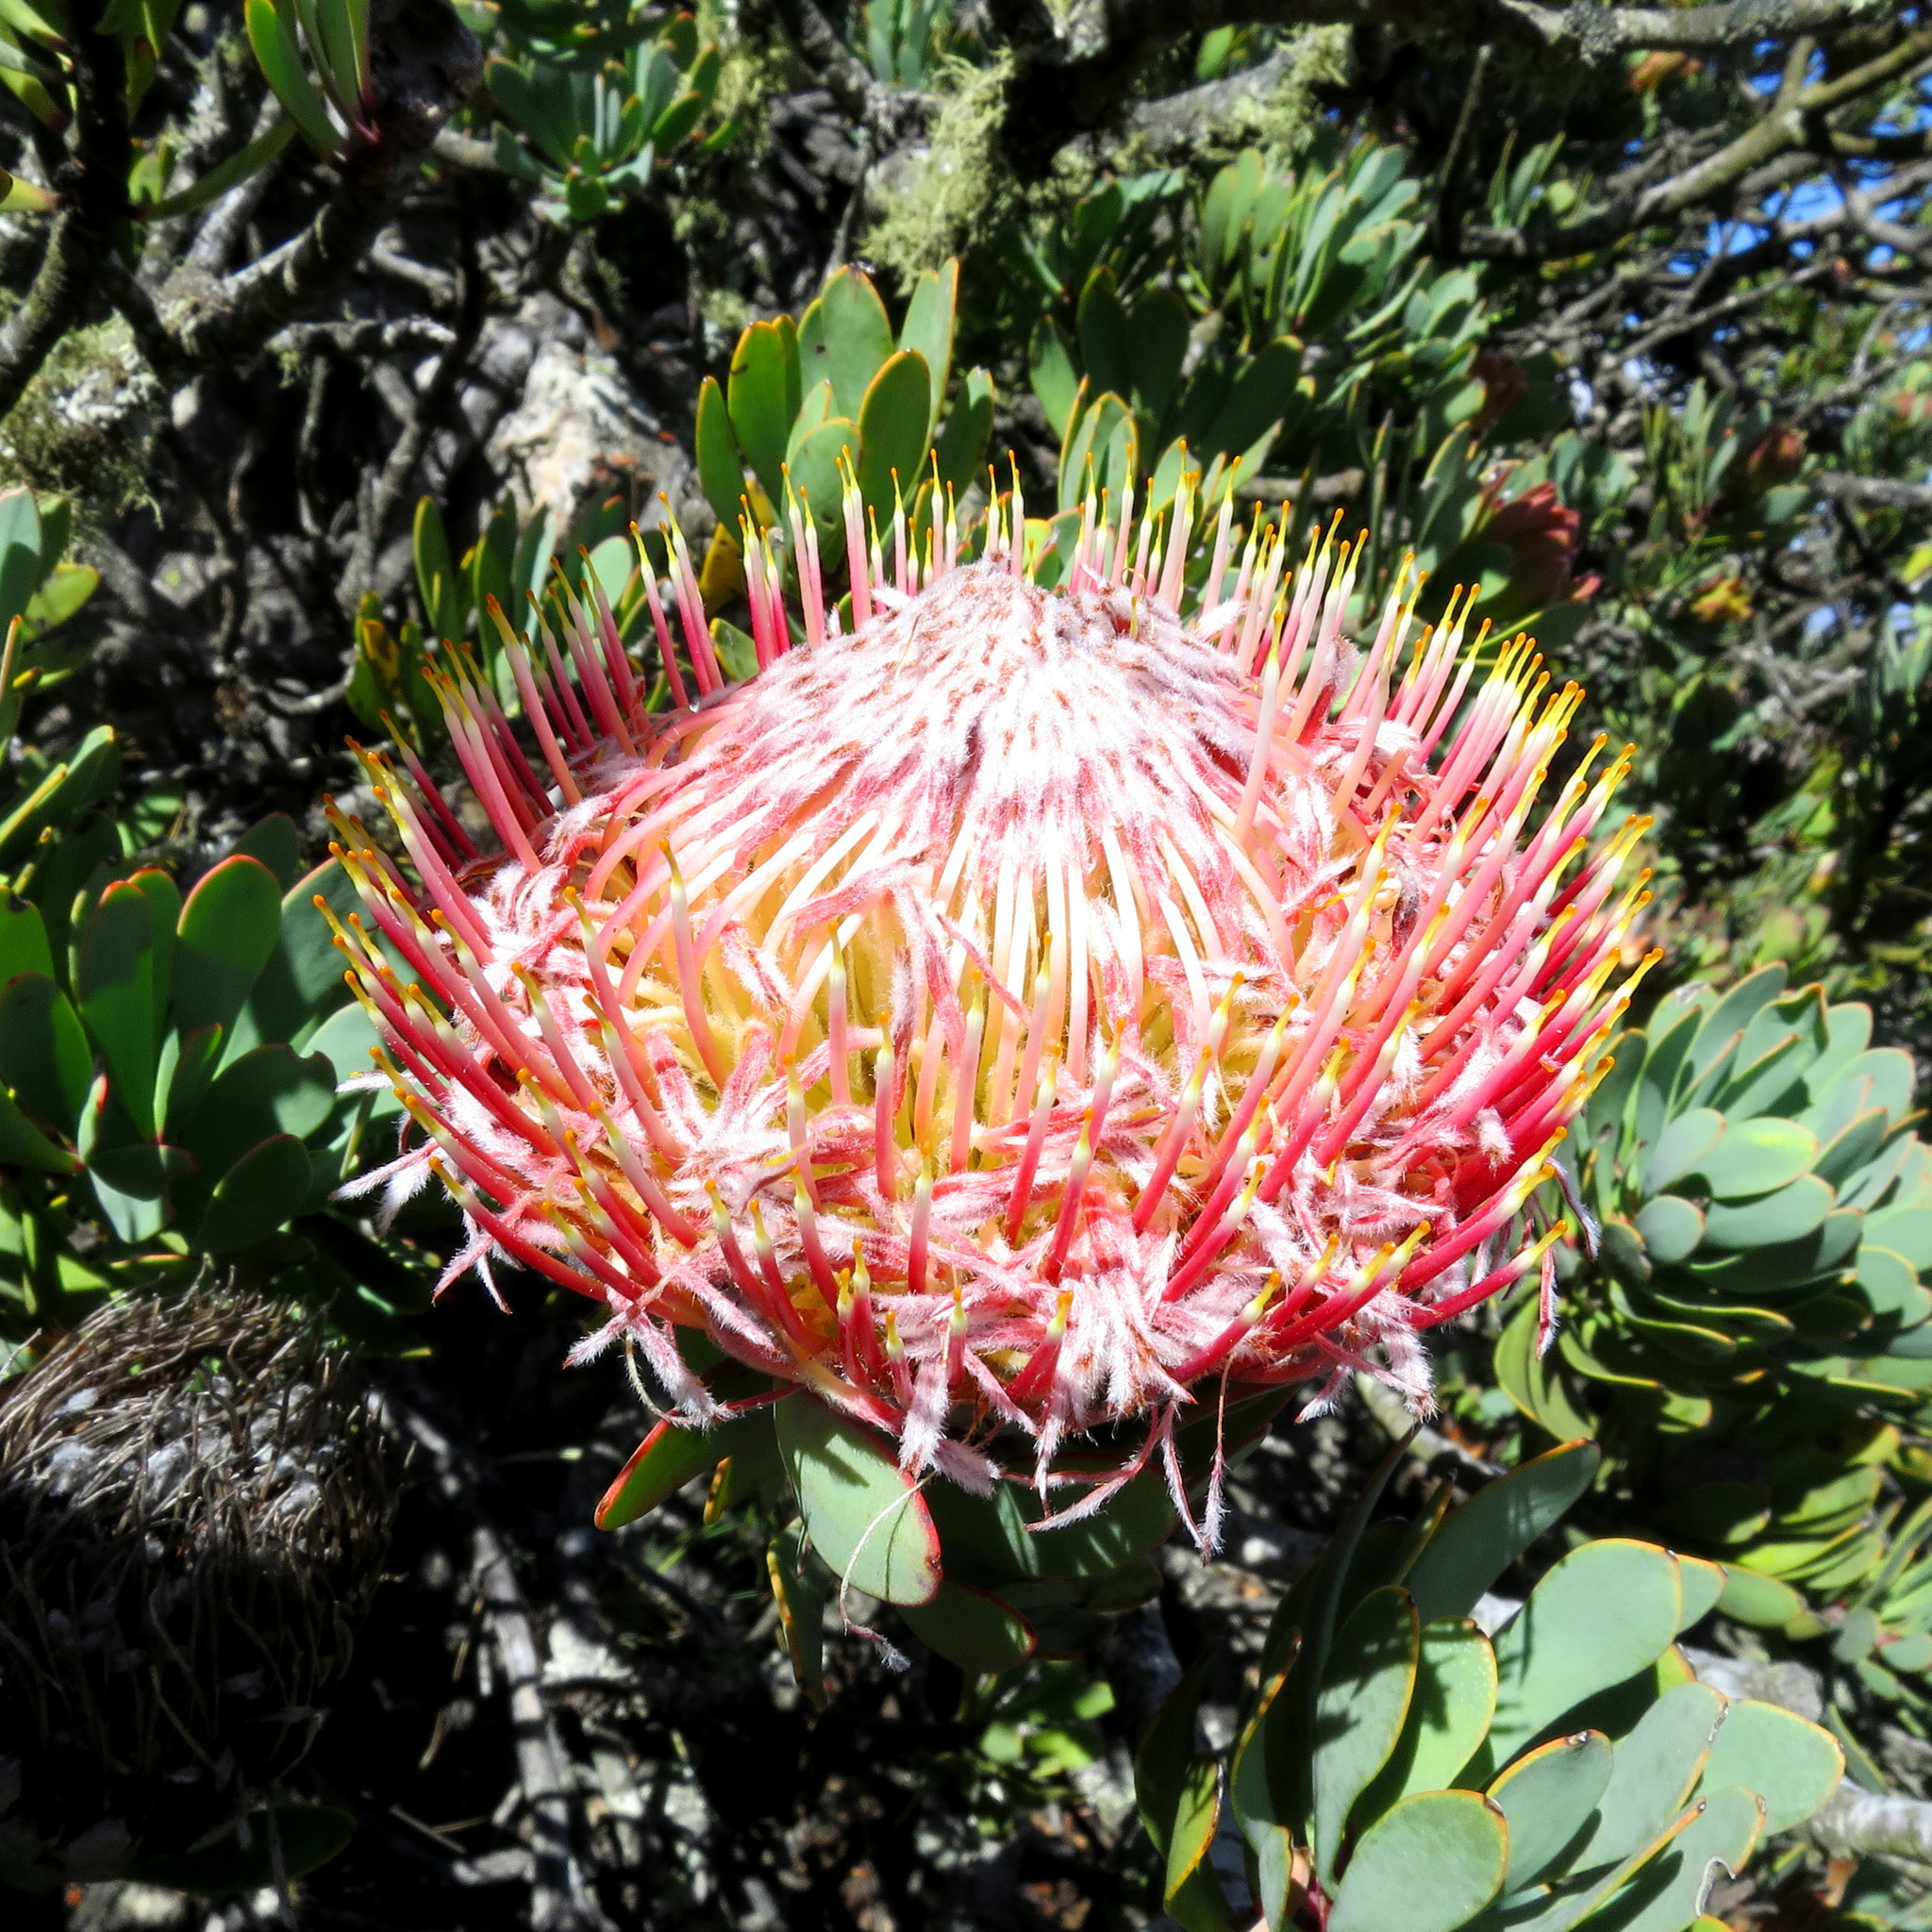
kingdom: Plantae
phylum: Tracheophyta
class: Magnoliopsida
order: Proteales
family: Proteaceae
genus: Protea
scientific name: Protea rupicola
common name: Krantz protea
